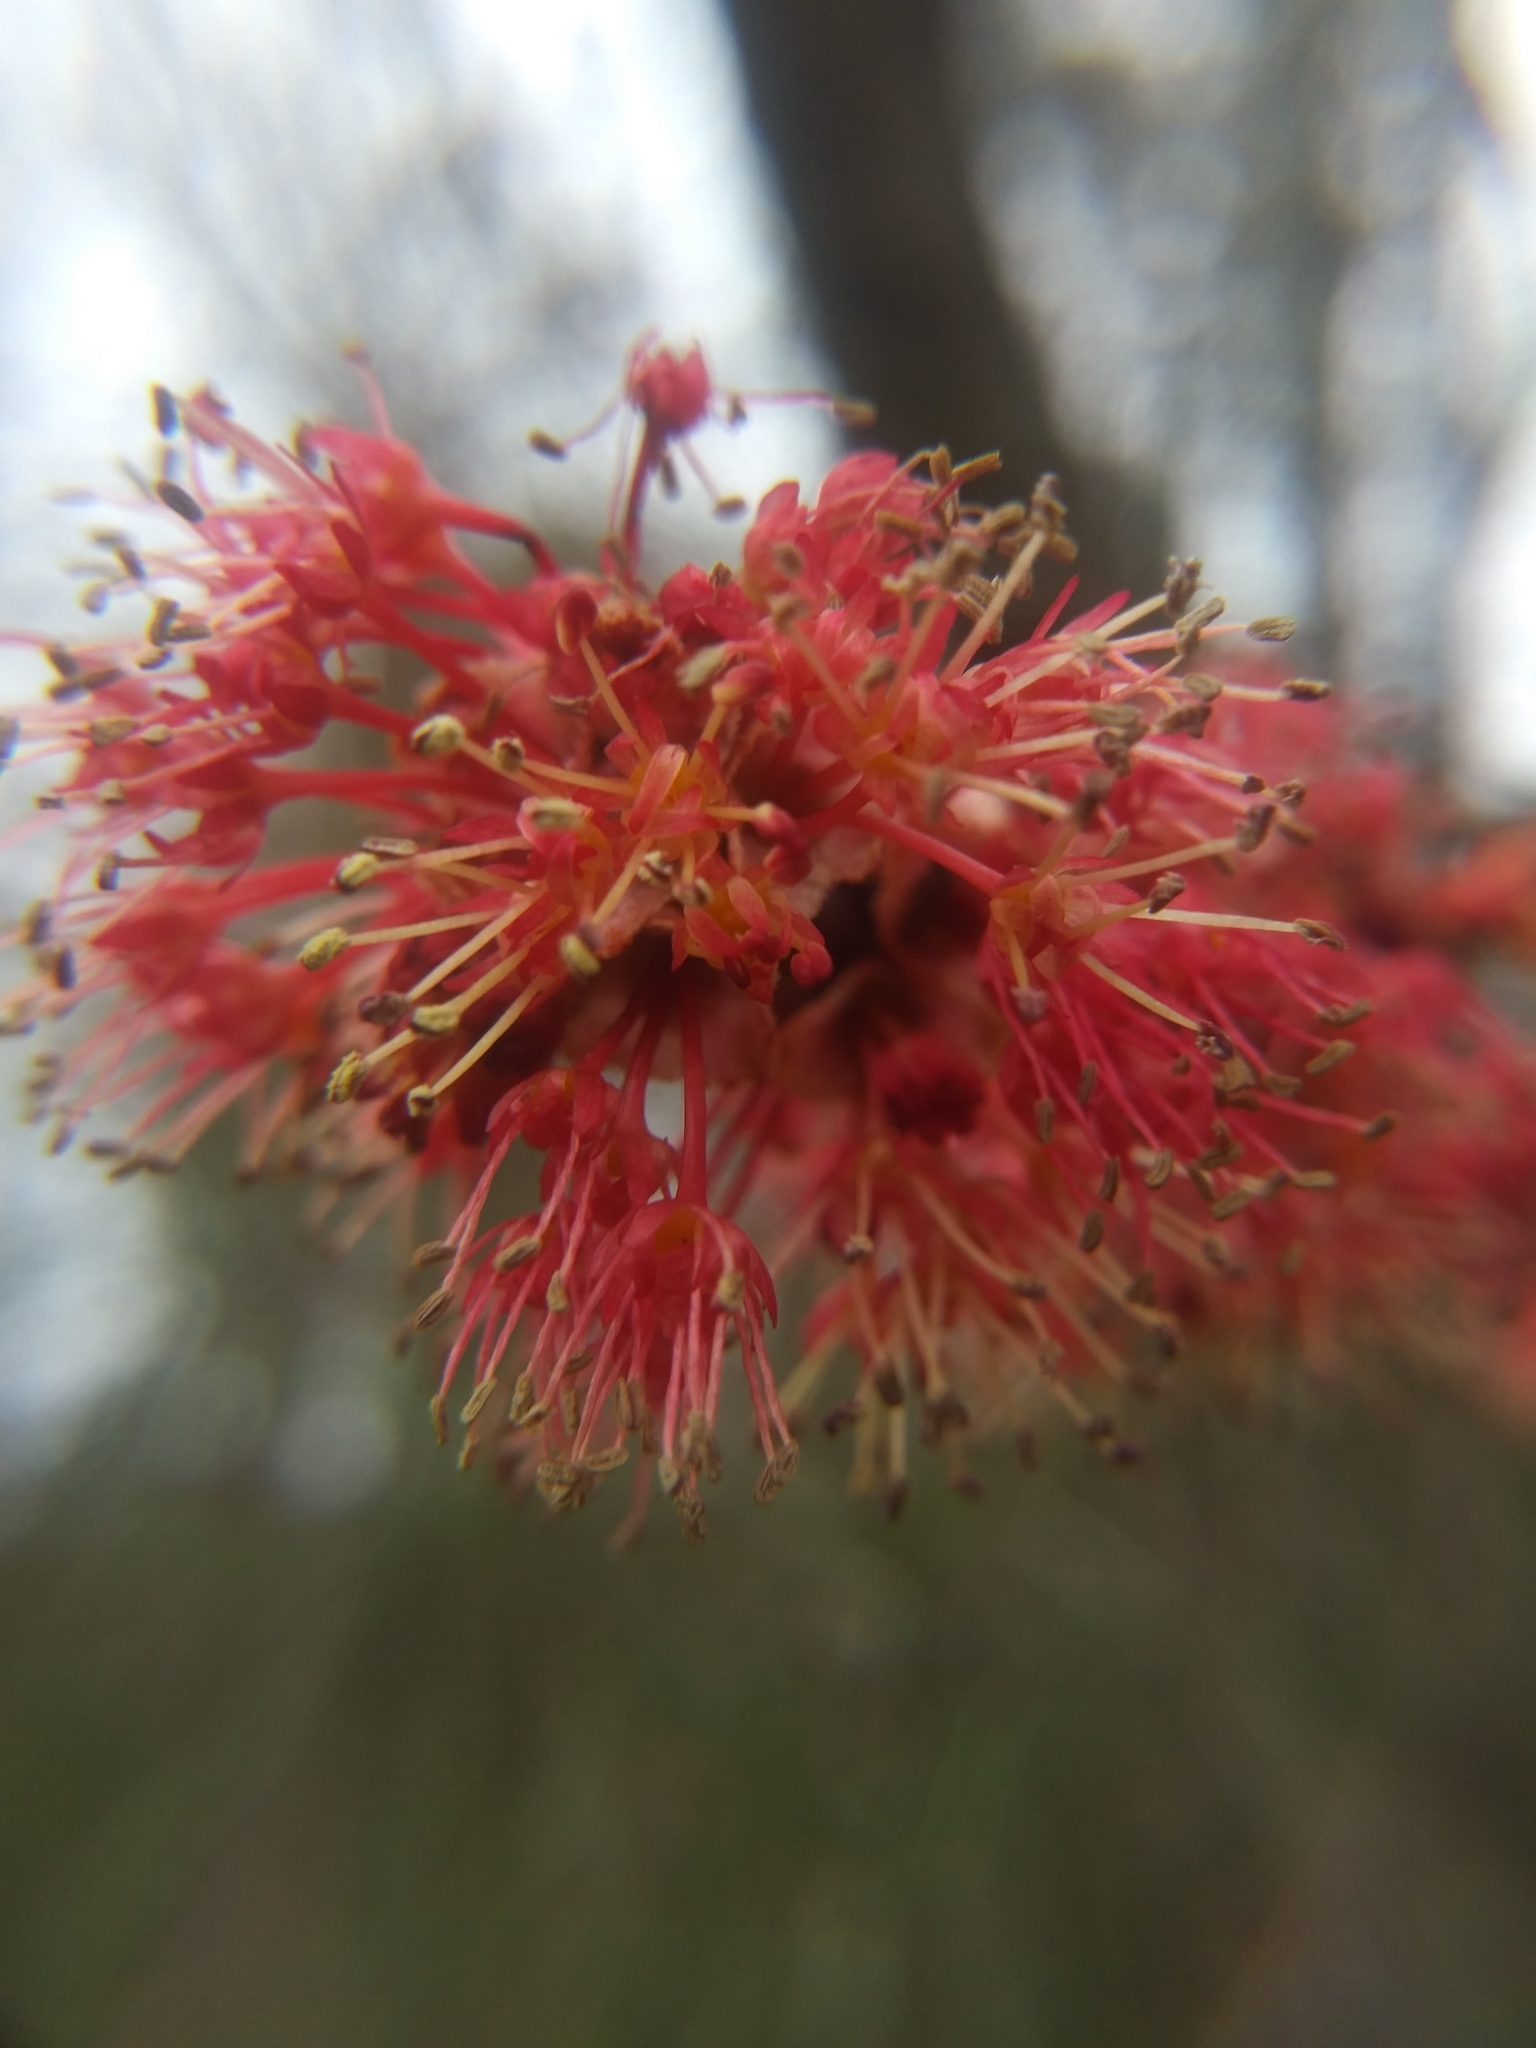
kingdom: Plantae
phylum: Tracheophyta
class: Magnoliopsida
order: Sapindales
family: Sapindaceae
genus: Acer
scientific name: Acer rubrum
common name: Red maple
